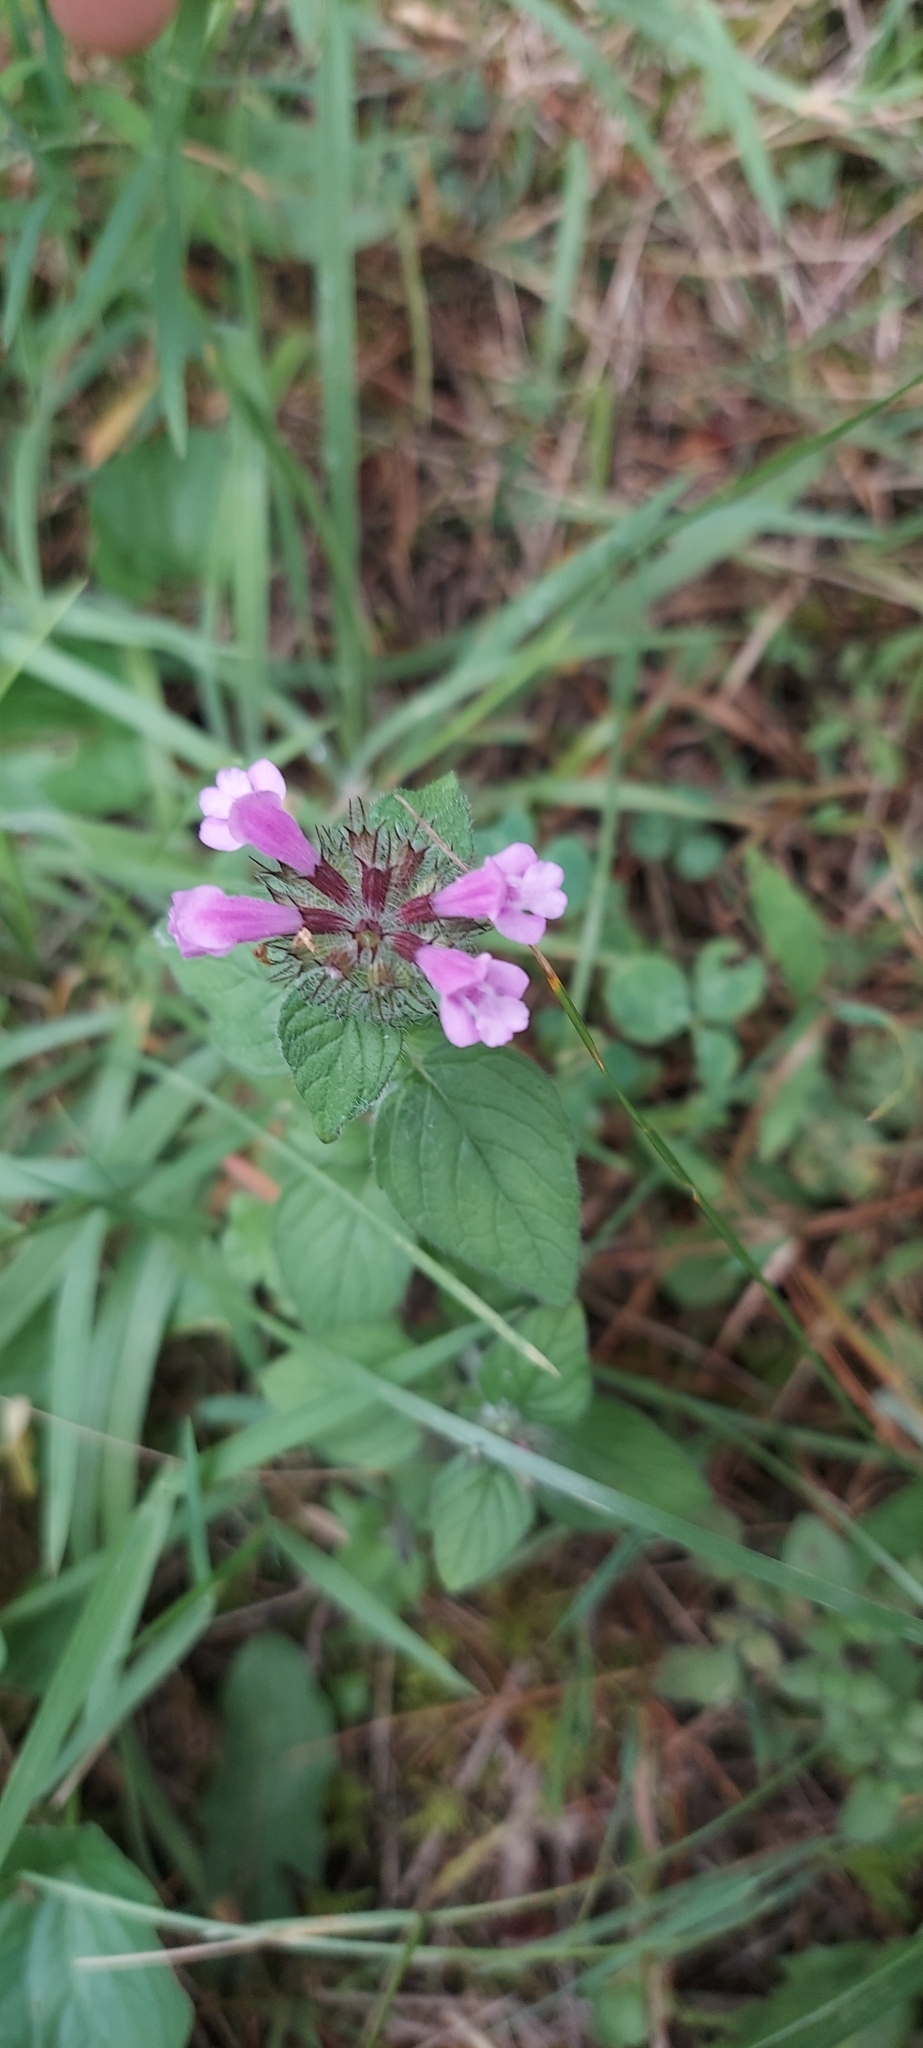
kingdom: Plantae
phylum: Tracheophyta
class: Magnoliopsida
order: Lamiales
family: Lamiaceae
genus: Clinopodium
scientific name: Clinopodium vulgare
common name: Wild basil
